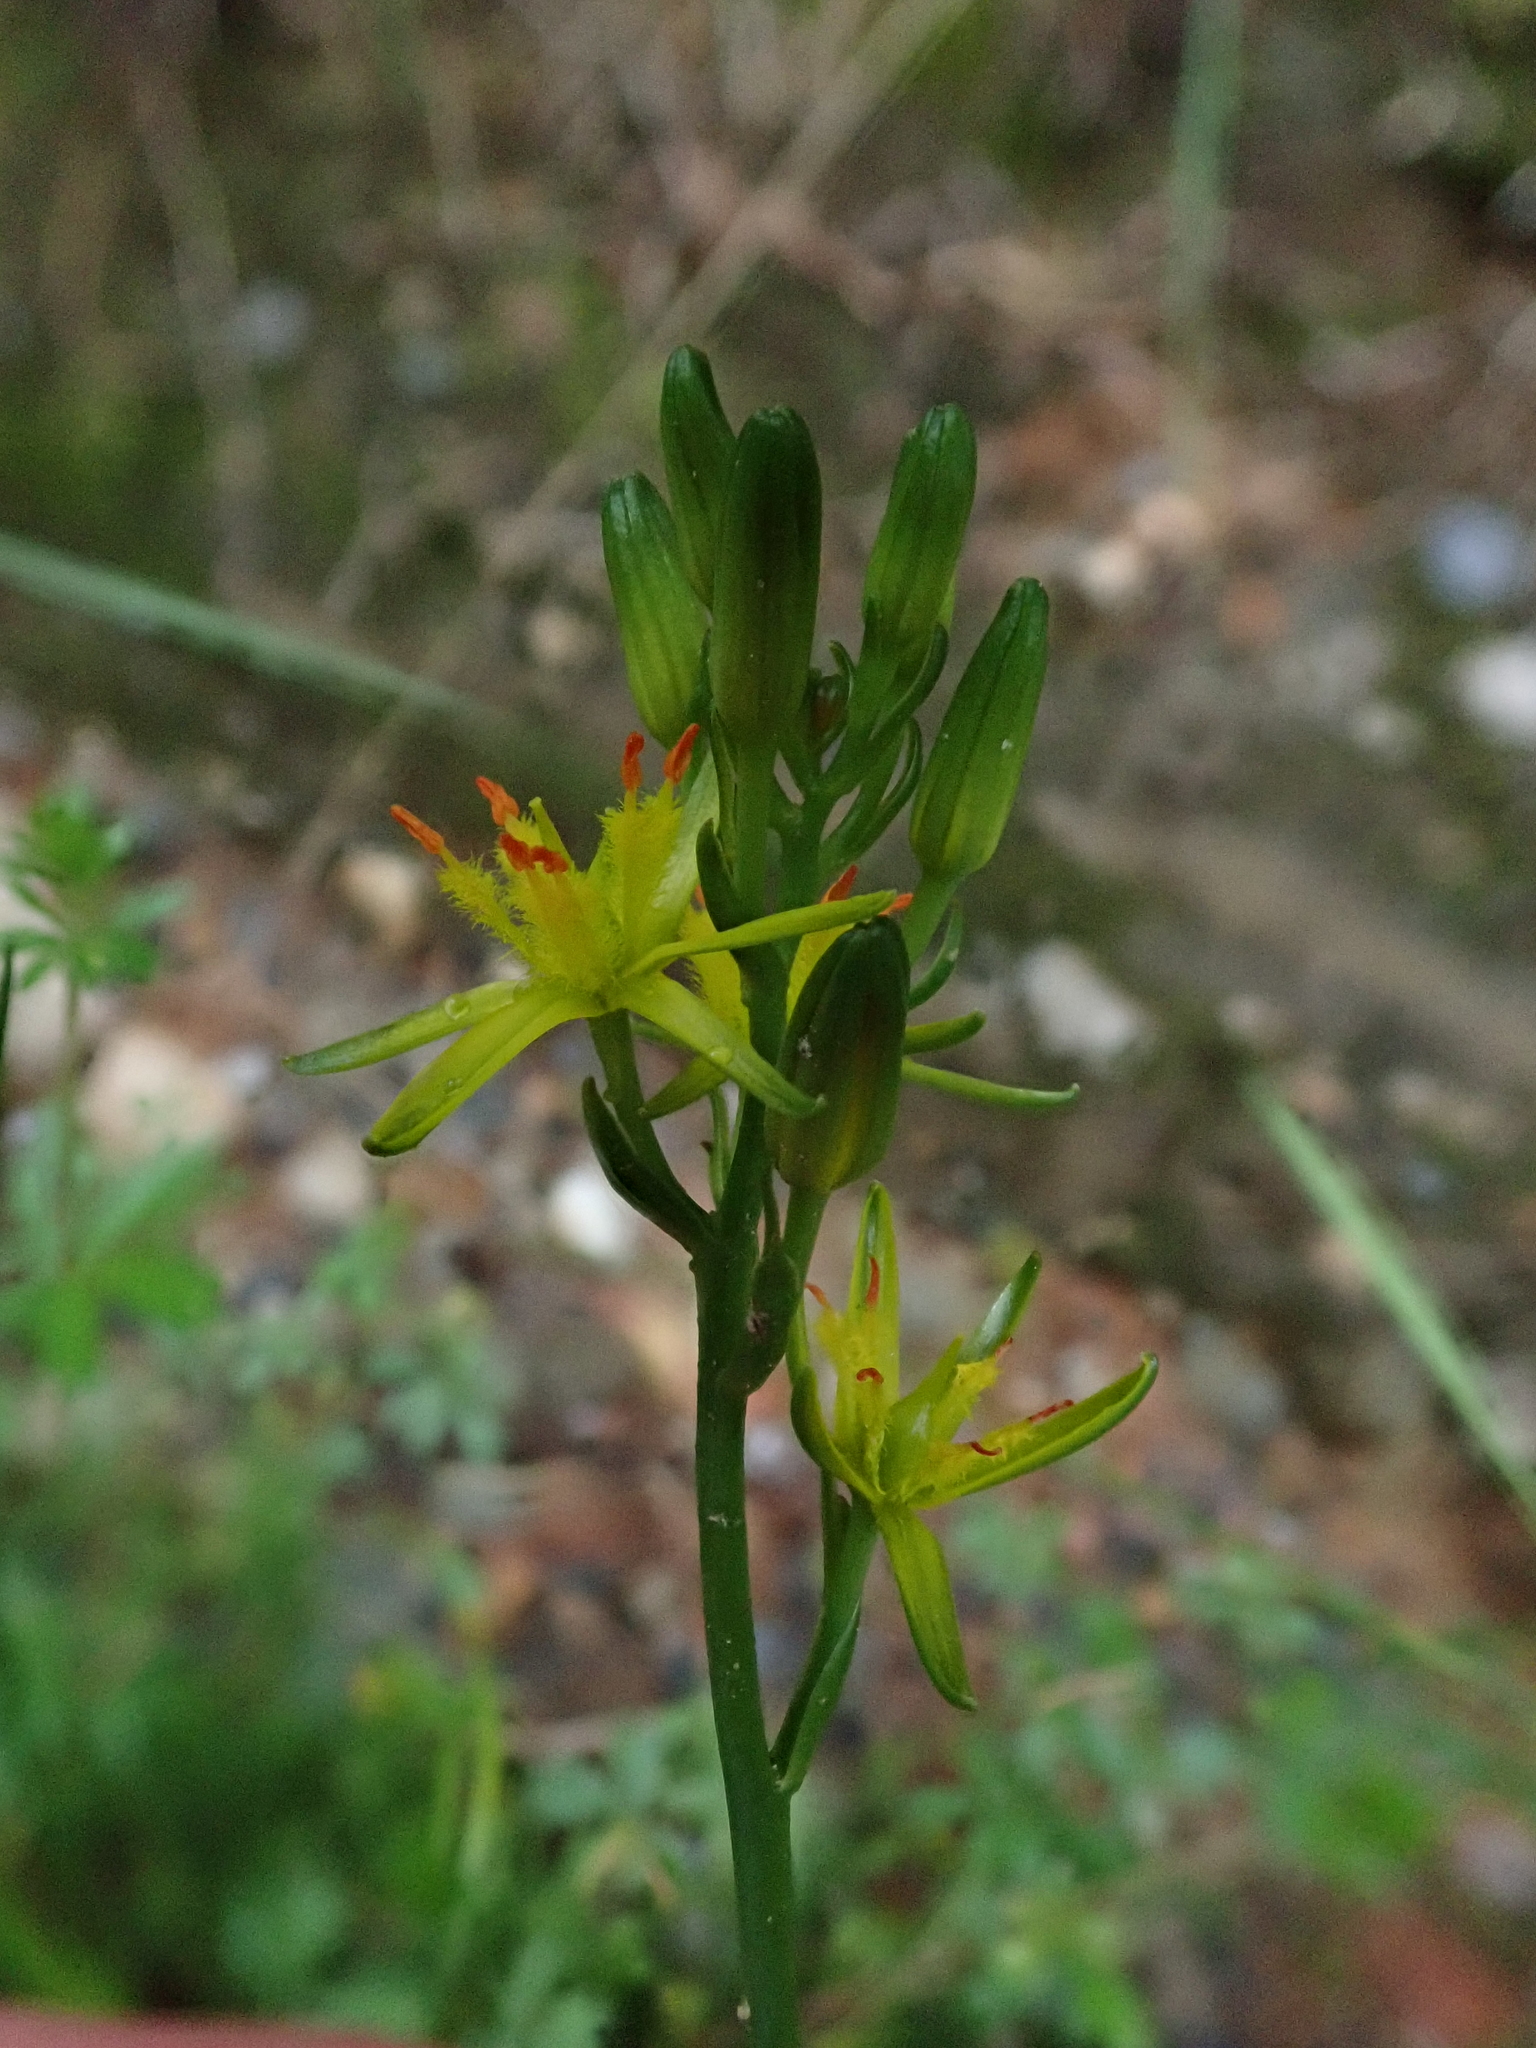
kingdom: Plantae
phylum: Tracheophyta
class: Liliopsida
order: Dioscoreales
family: Nartheciaceae
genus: Narthecium
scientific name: Narthecium ossifragum
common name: Bog asphodel
